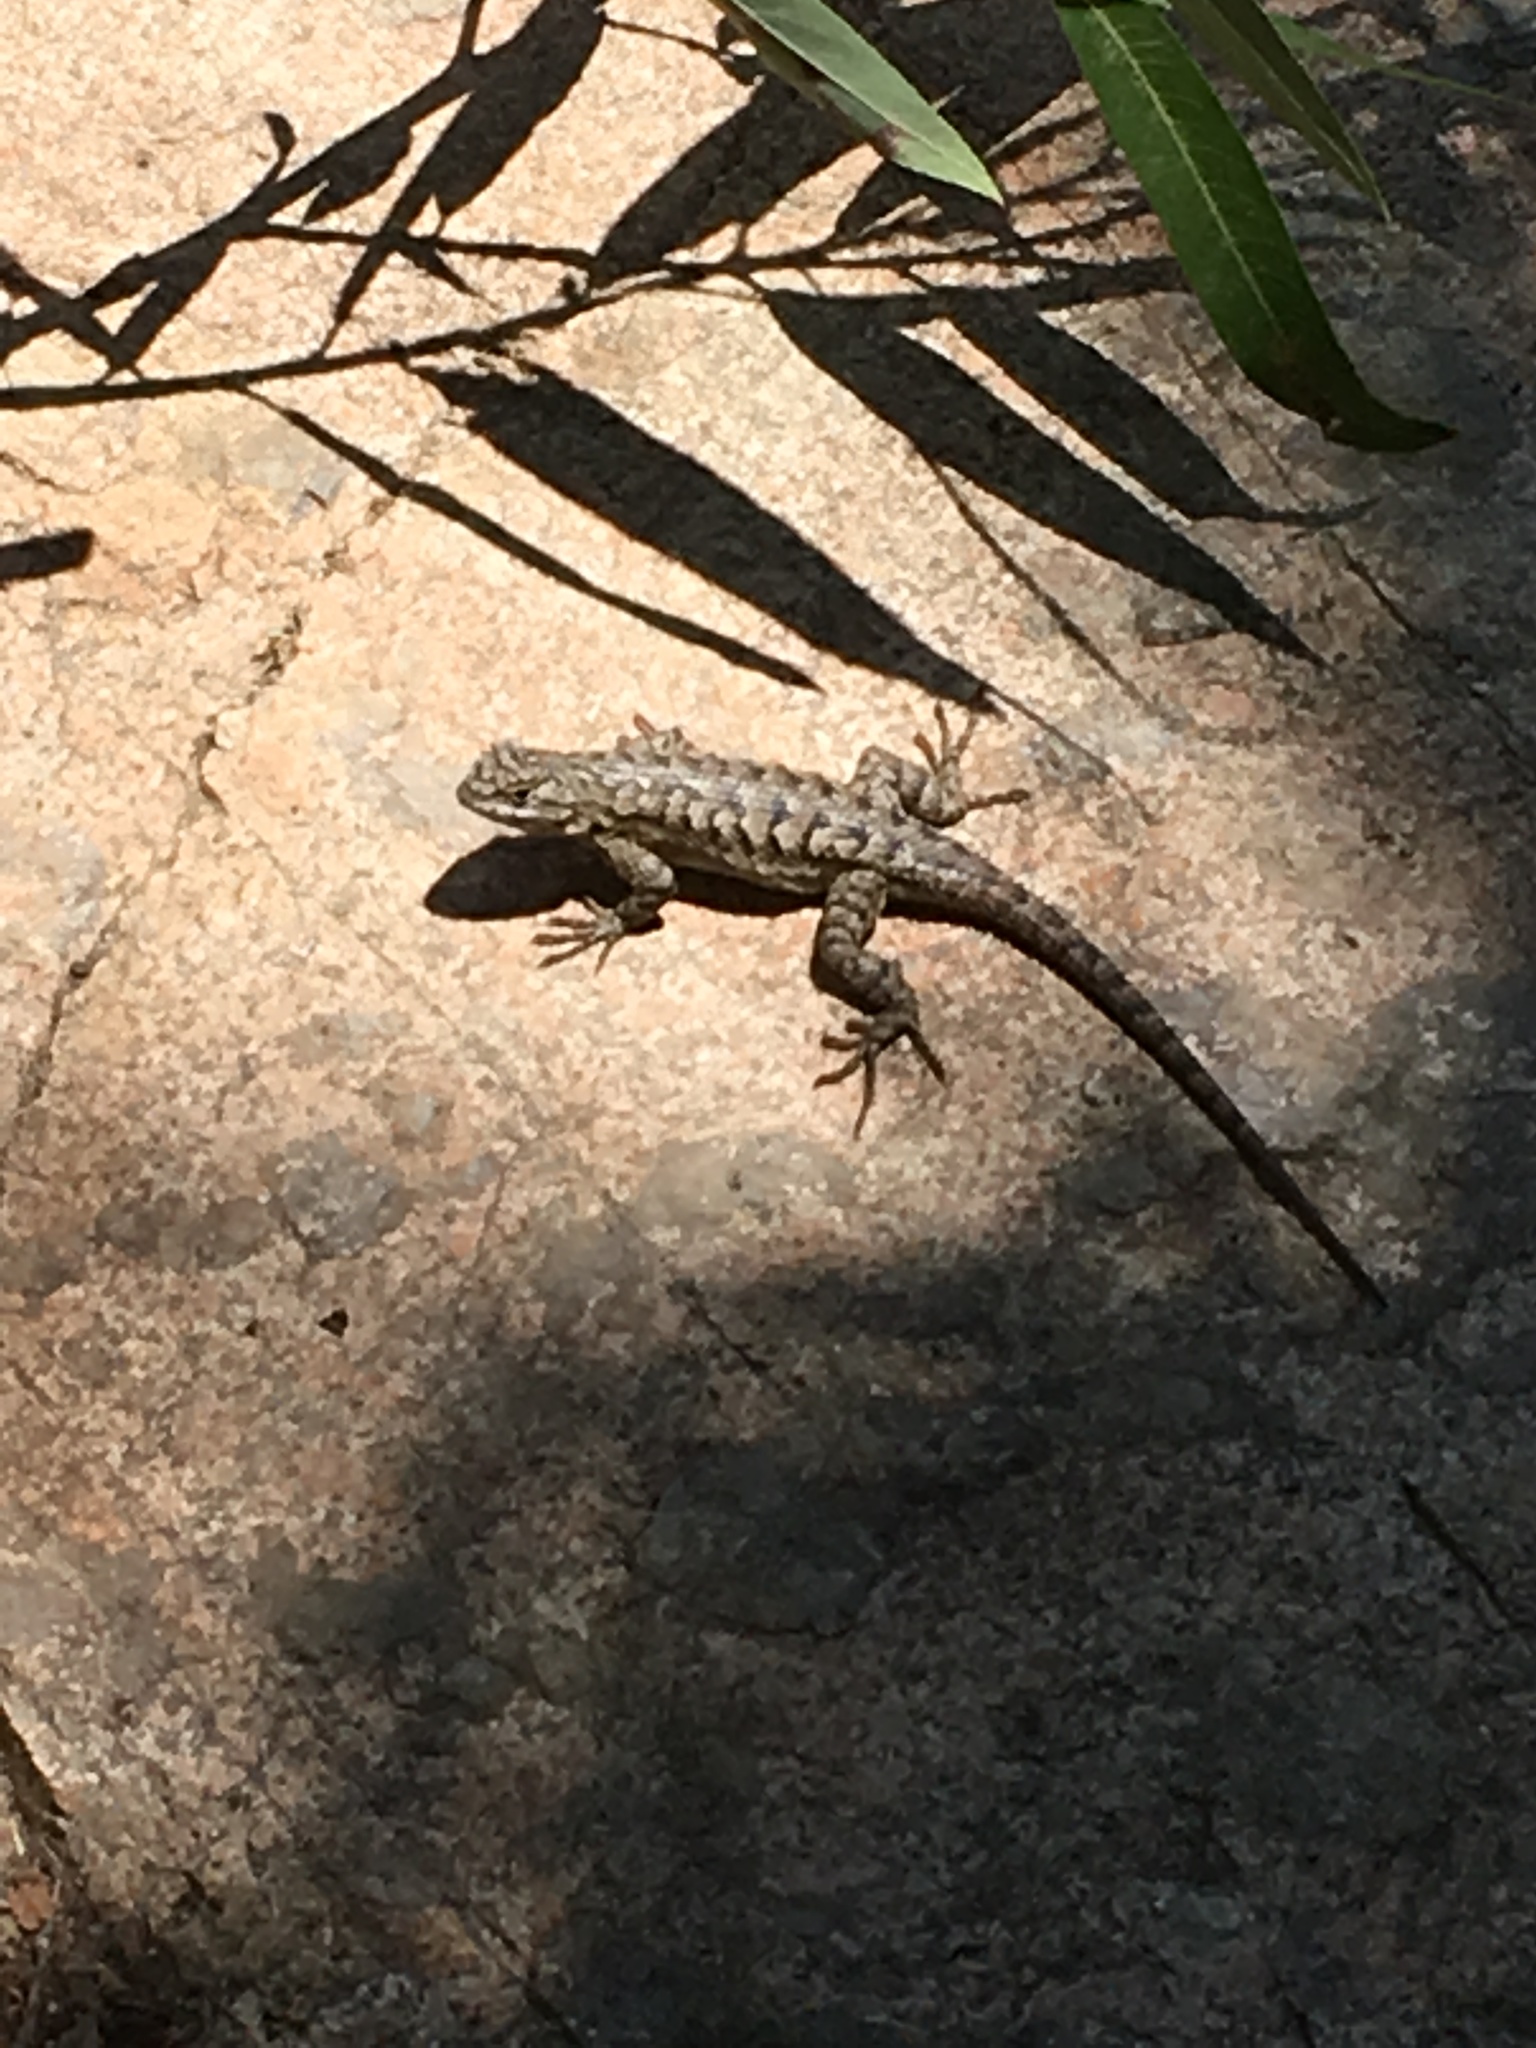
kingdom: Animalia
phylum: Chordata
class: Squamata
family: Phrynosomatidae
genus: Sceloporus
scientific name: Sceloporus occidentalis
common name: Western fence lizard
